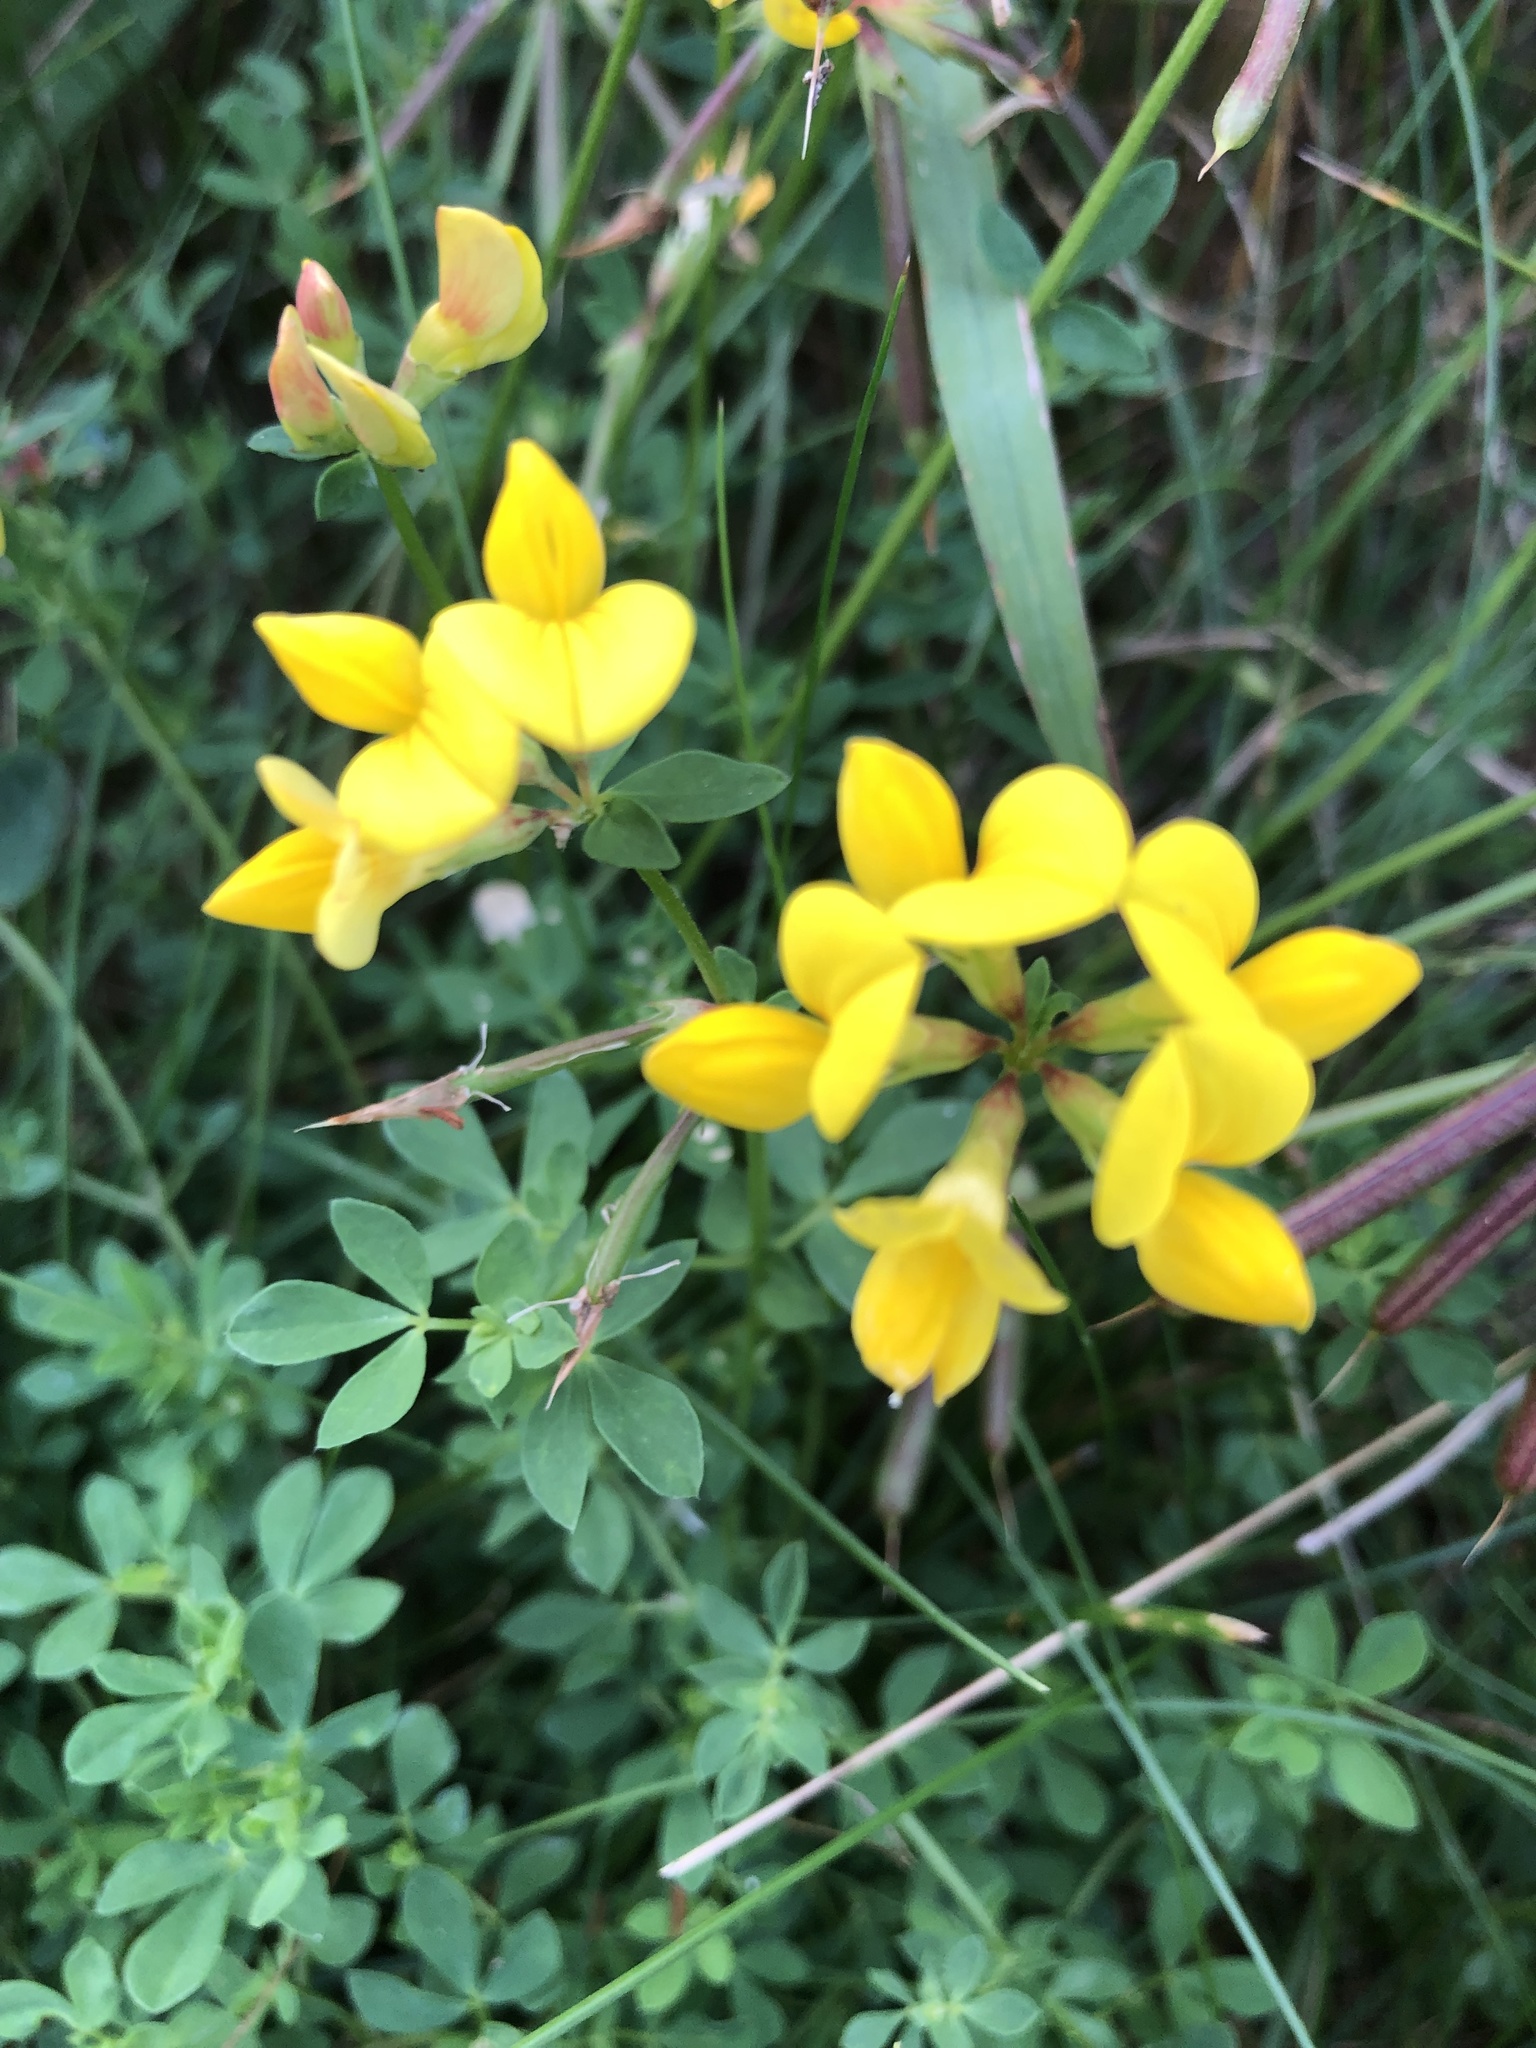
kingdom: Plantae
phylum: Tracheophyta
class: Magnoliopsida
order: Fabales
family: Fabaceae
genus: Lotus
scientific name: Lotus corniculatus
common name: Common bird's-foot-trefoil
